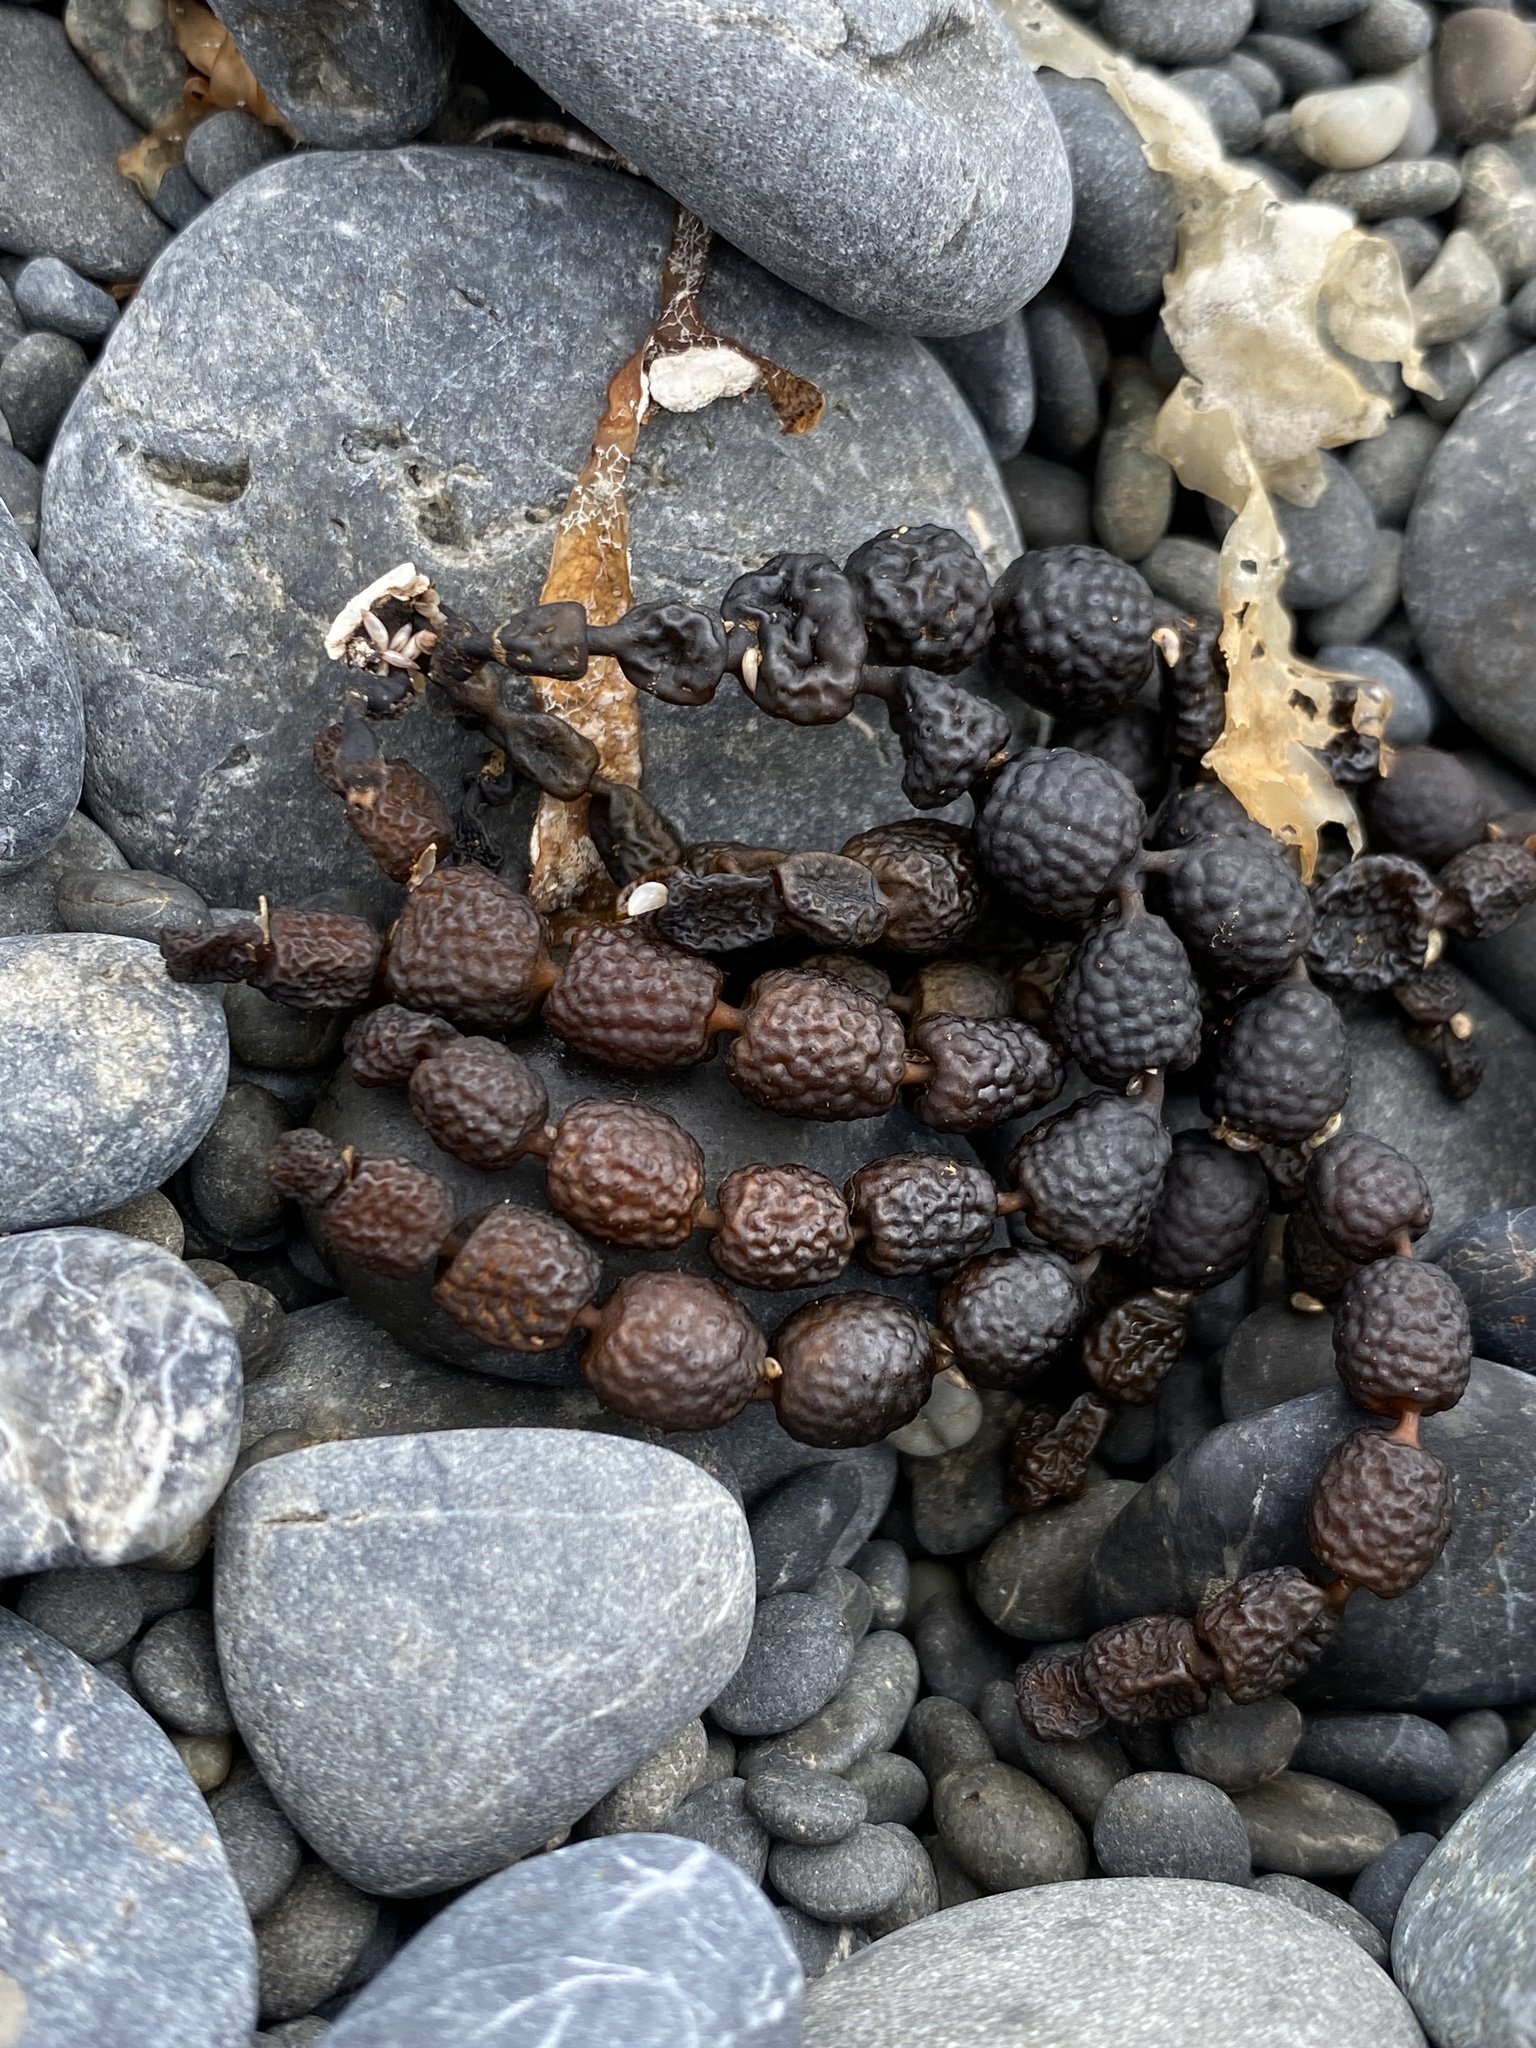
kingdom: Chromista
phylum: Ochrophyta
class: Phaeophyceae
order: Fucales
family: Hormosiraceae
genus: Hormosira
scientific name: Hormosira banksii
